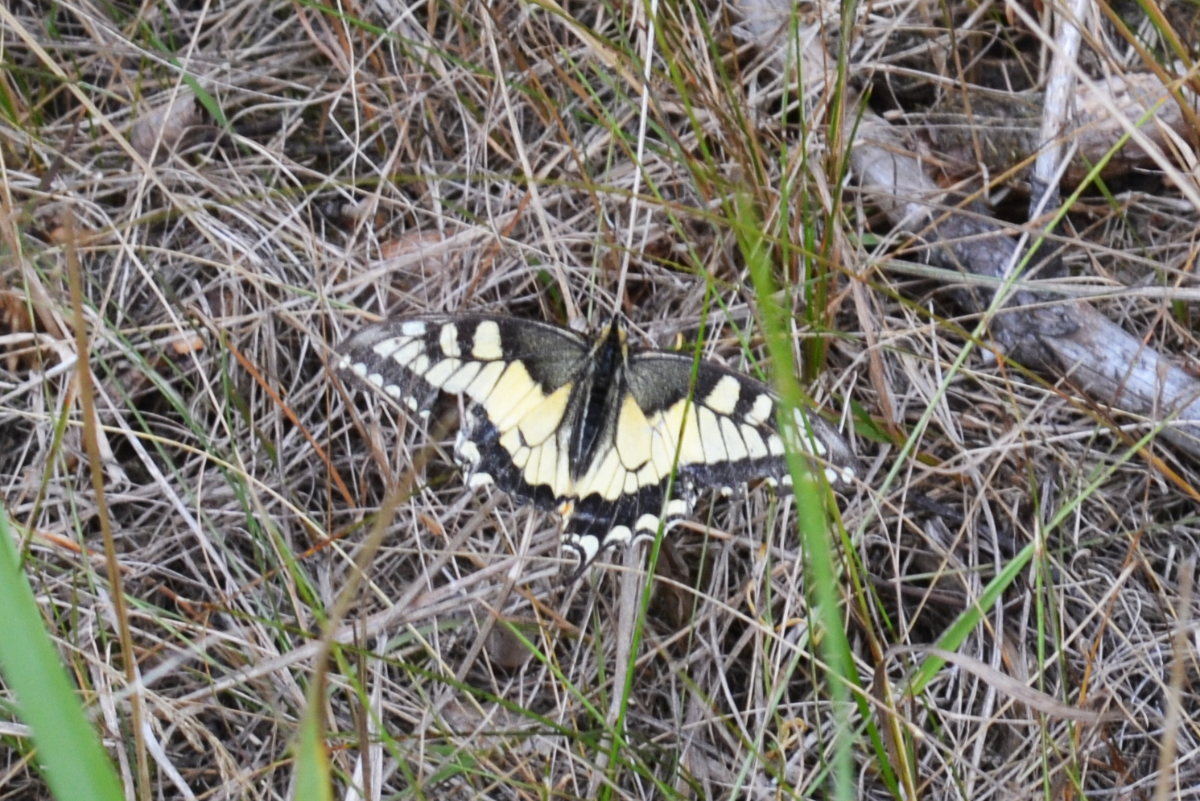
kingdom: Animalia
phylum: Arthropoda
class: Insecta
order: Lepidoptera
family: Papilionidae
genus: Papilio
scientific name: Papilio machaon
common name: Swallowtail
